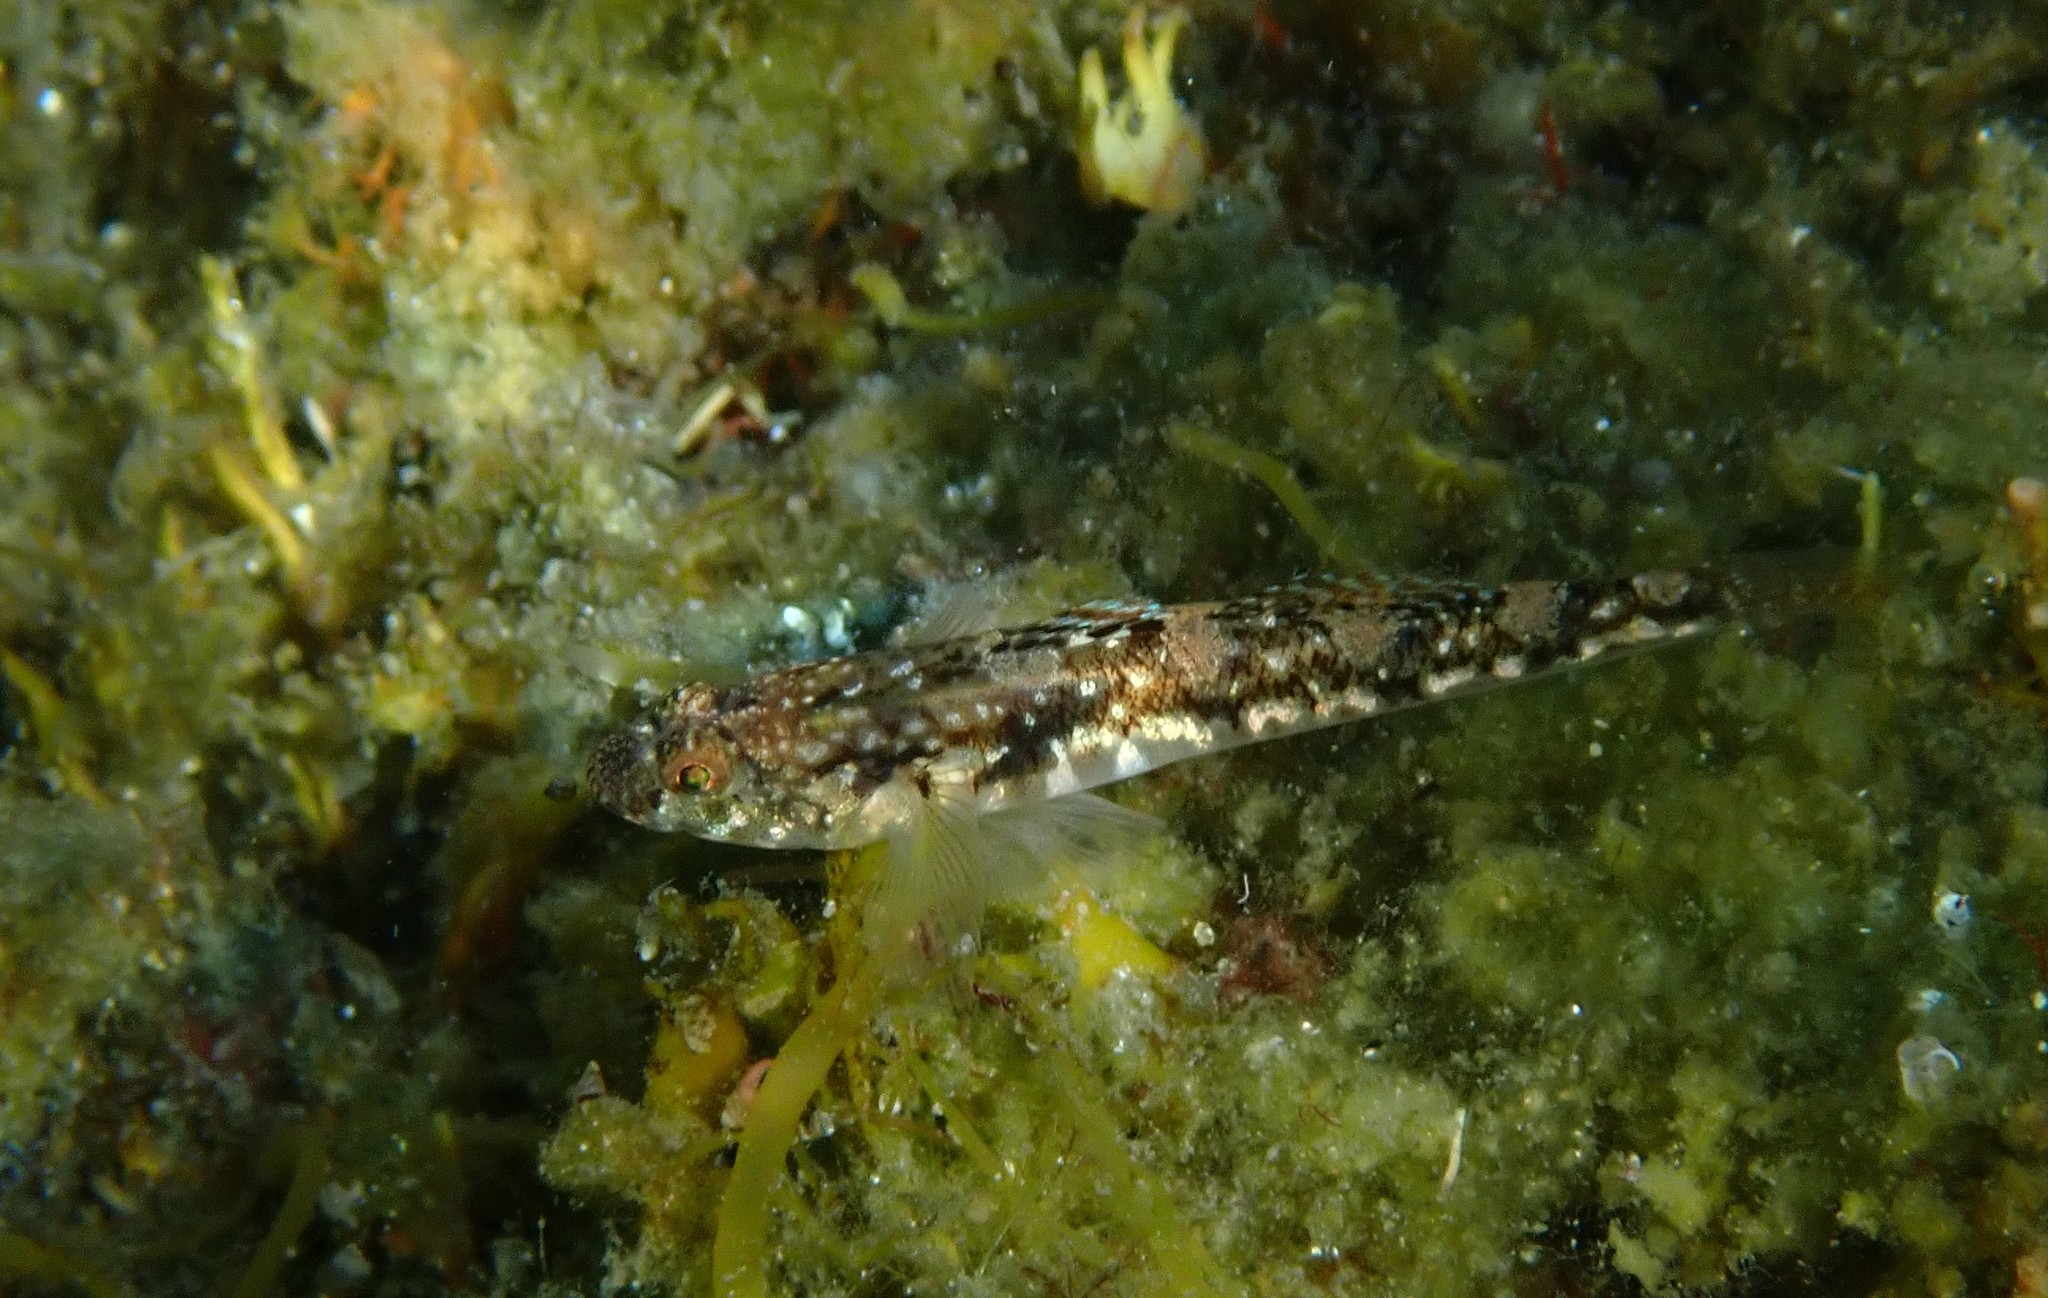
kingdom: Animalia
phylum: Chordata
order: Perciformes
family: Gobiidae
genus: Pomatoschistus
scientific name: Pomatoschistus pictus
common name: Painted goby
